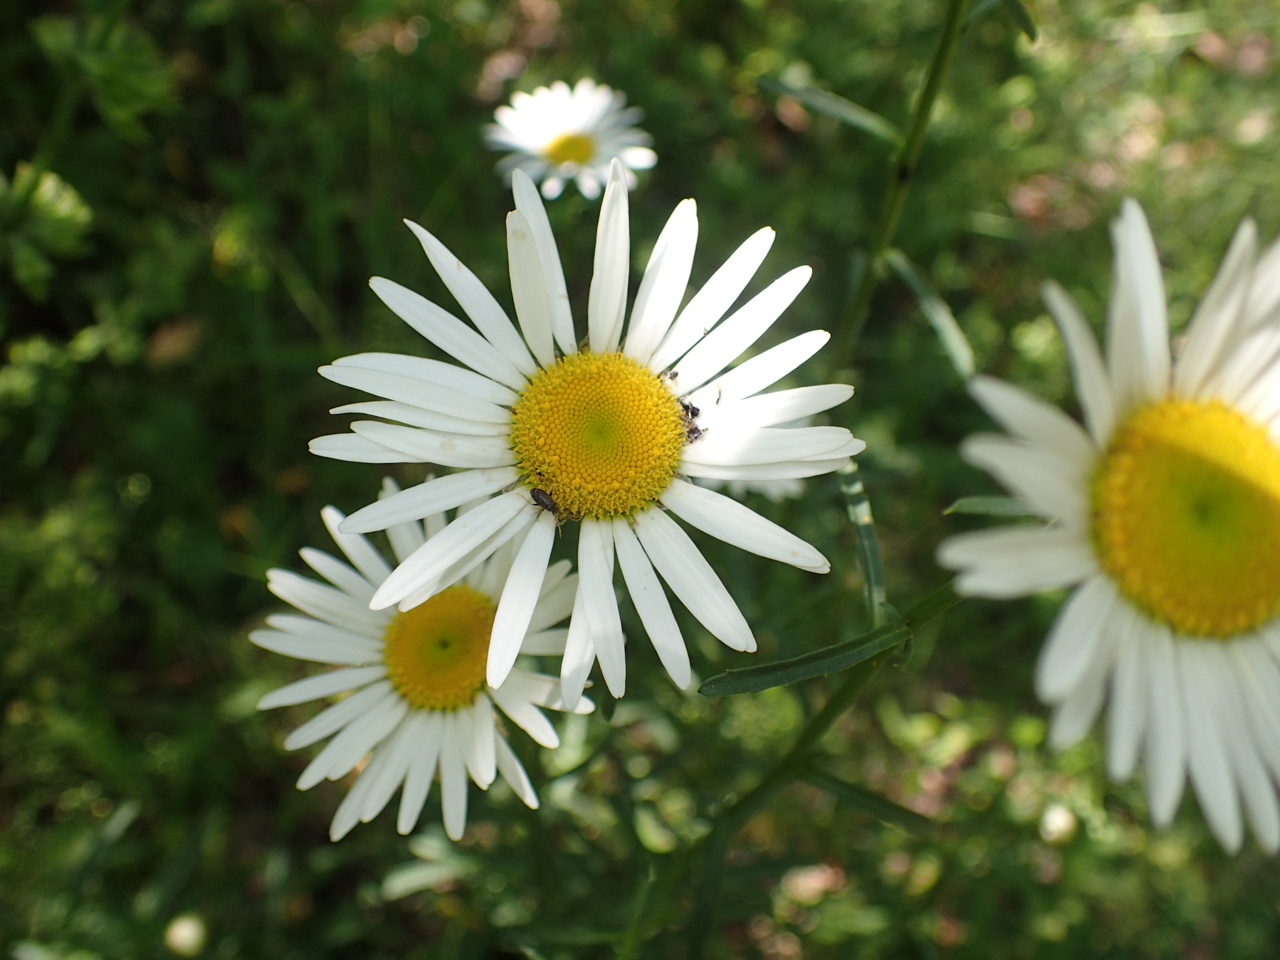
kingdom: Plantae
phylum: Tracheophyta
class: Magnoliopsida
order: Asterales
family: Asteraceae
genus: Leucanthemum
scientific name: Leucanthemum vulgare
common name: Oxeye daisy
